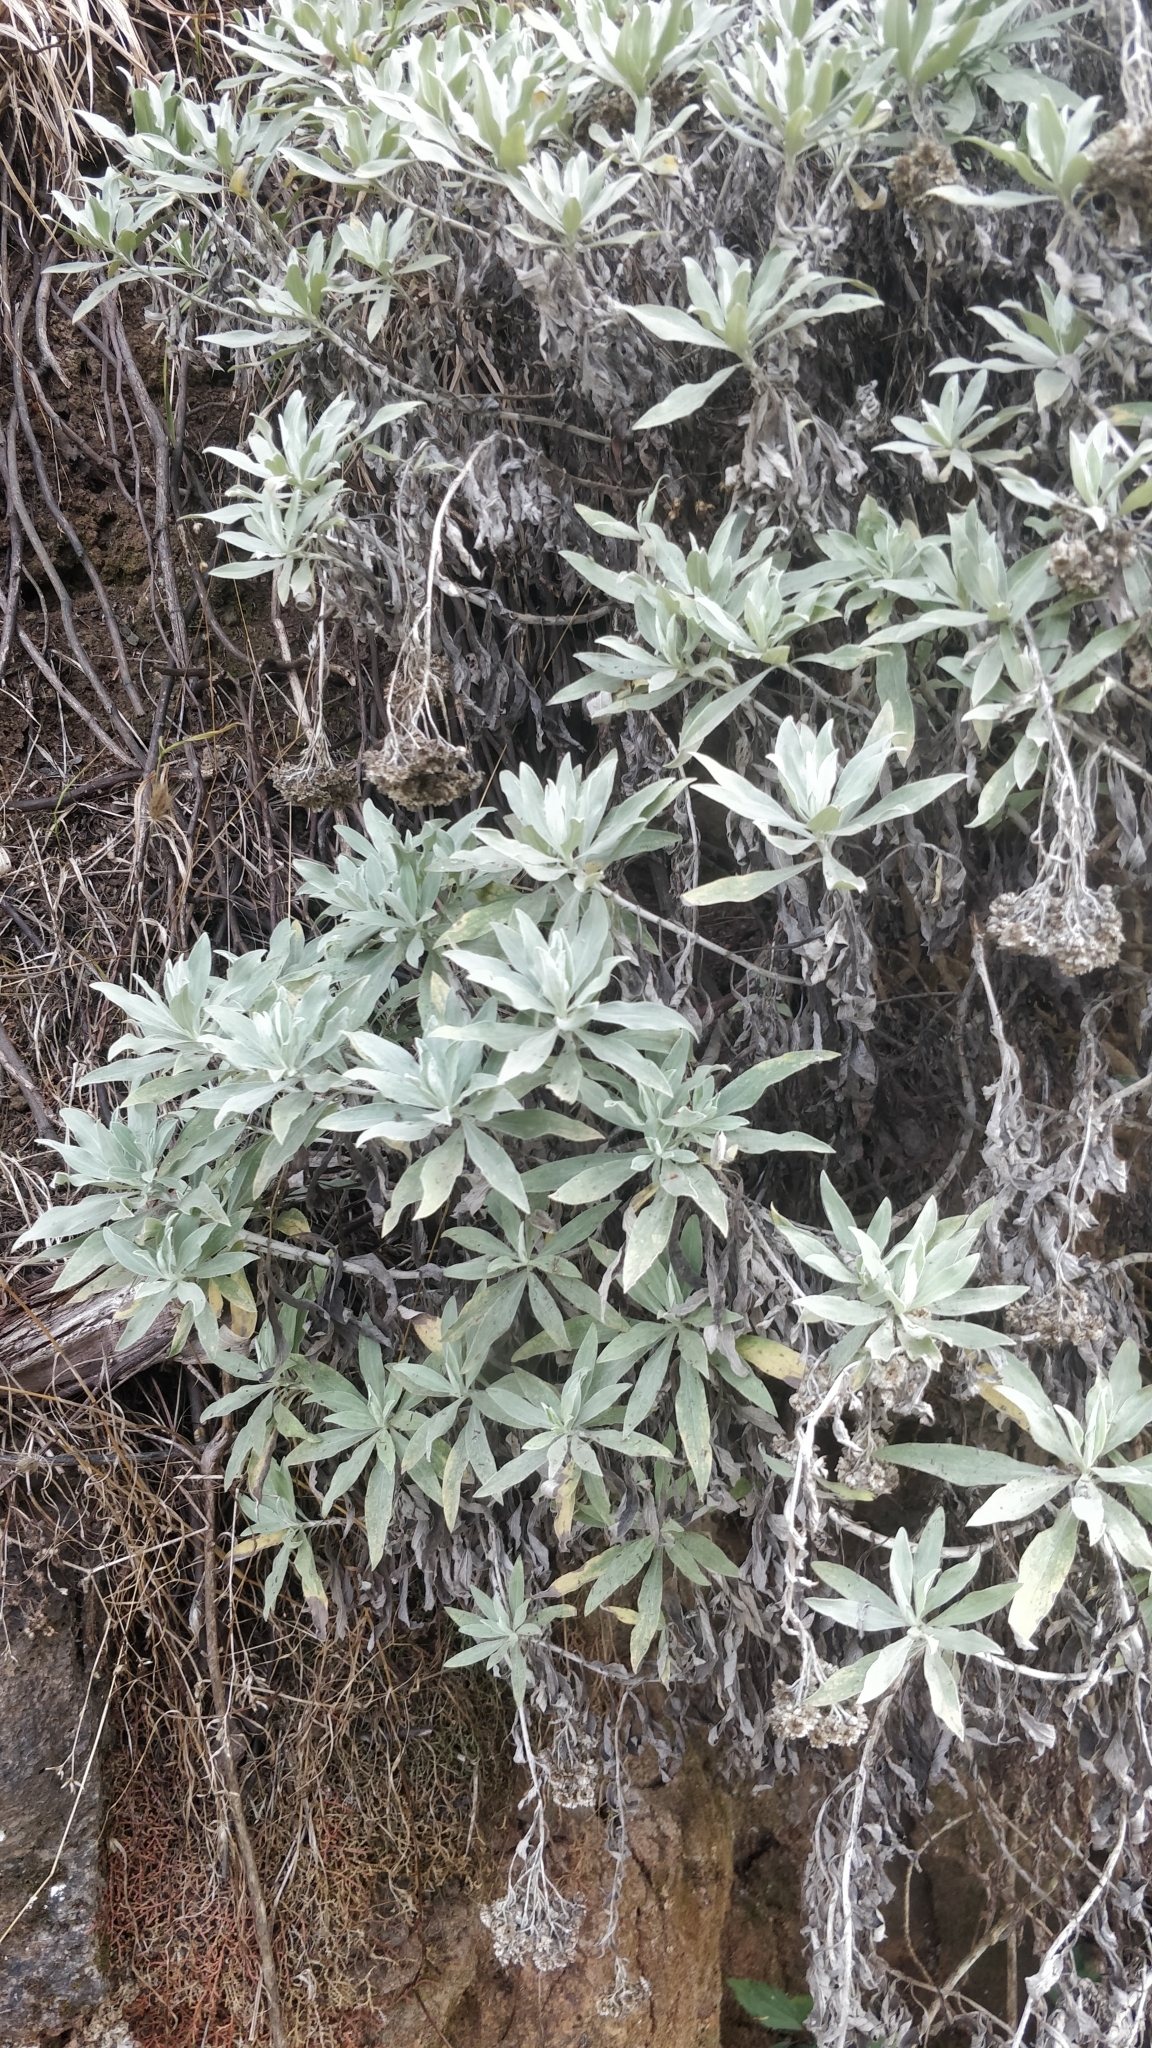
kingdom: Plantae
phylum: Tracheophyta
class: Magnoliopsida
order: Asterales
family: Asteraceae
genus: Helichrysum
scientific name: Helichrysum melaleucum
